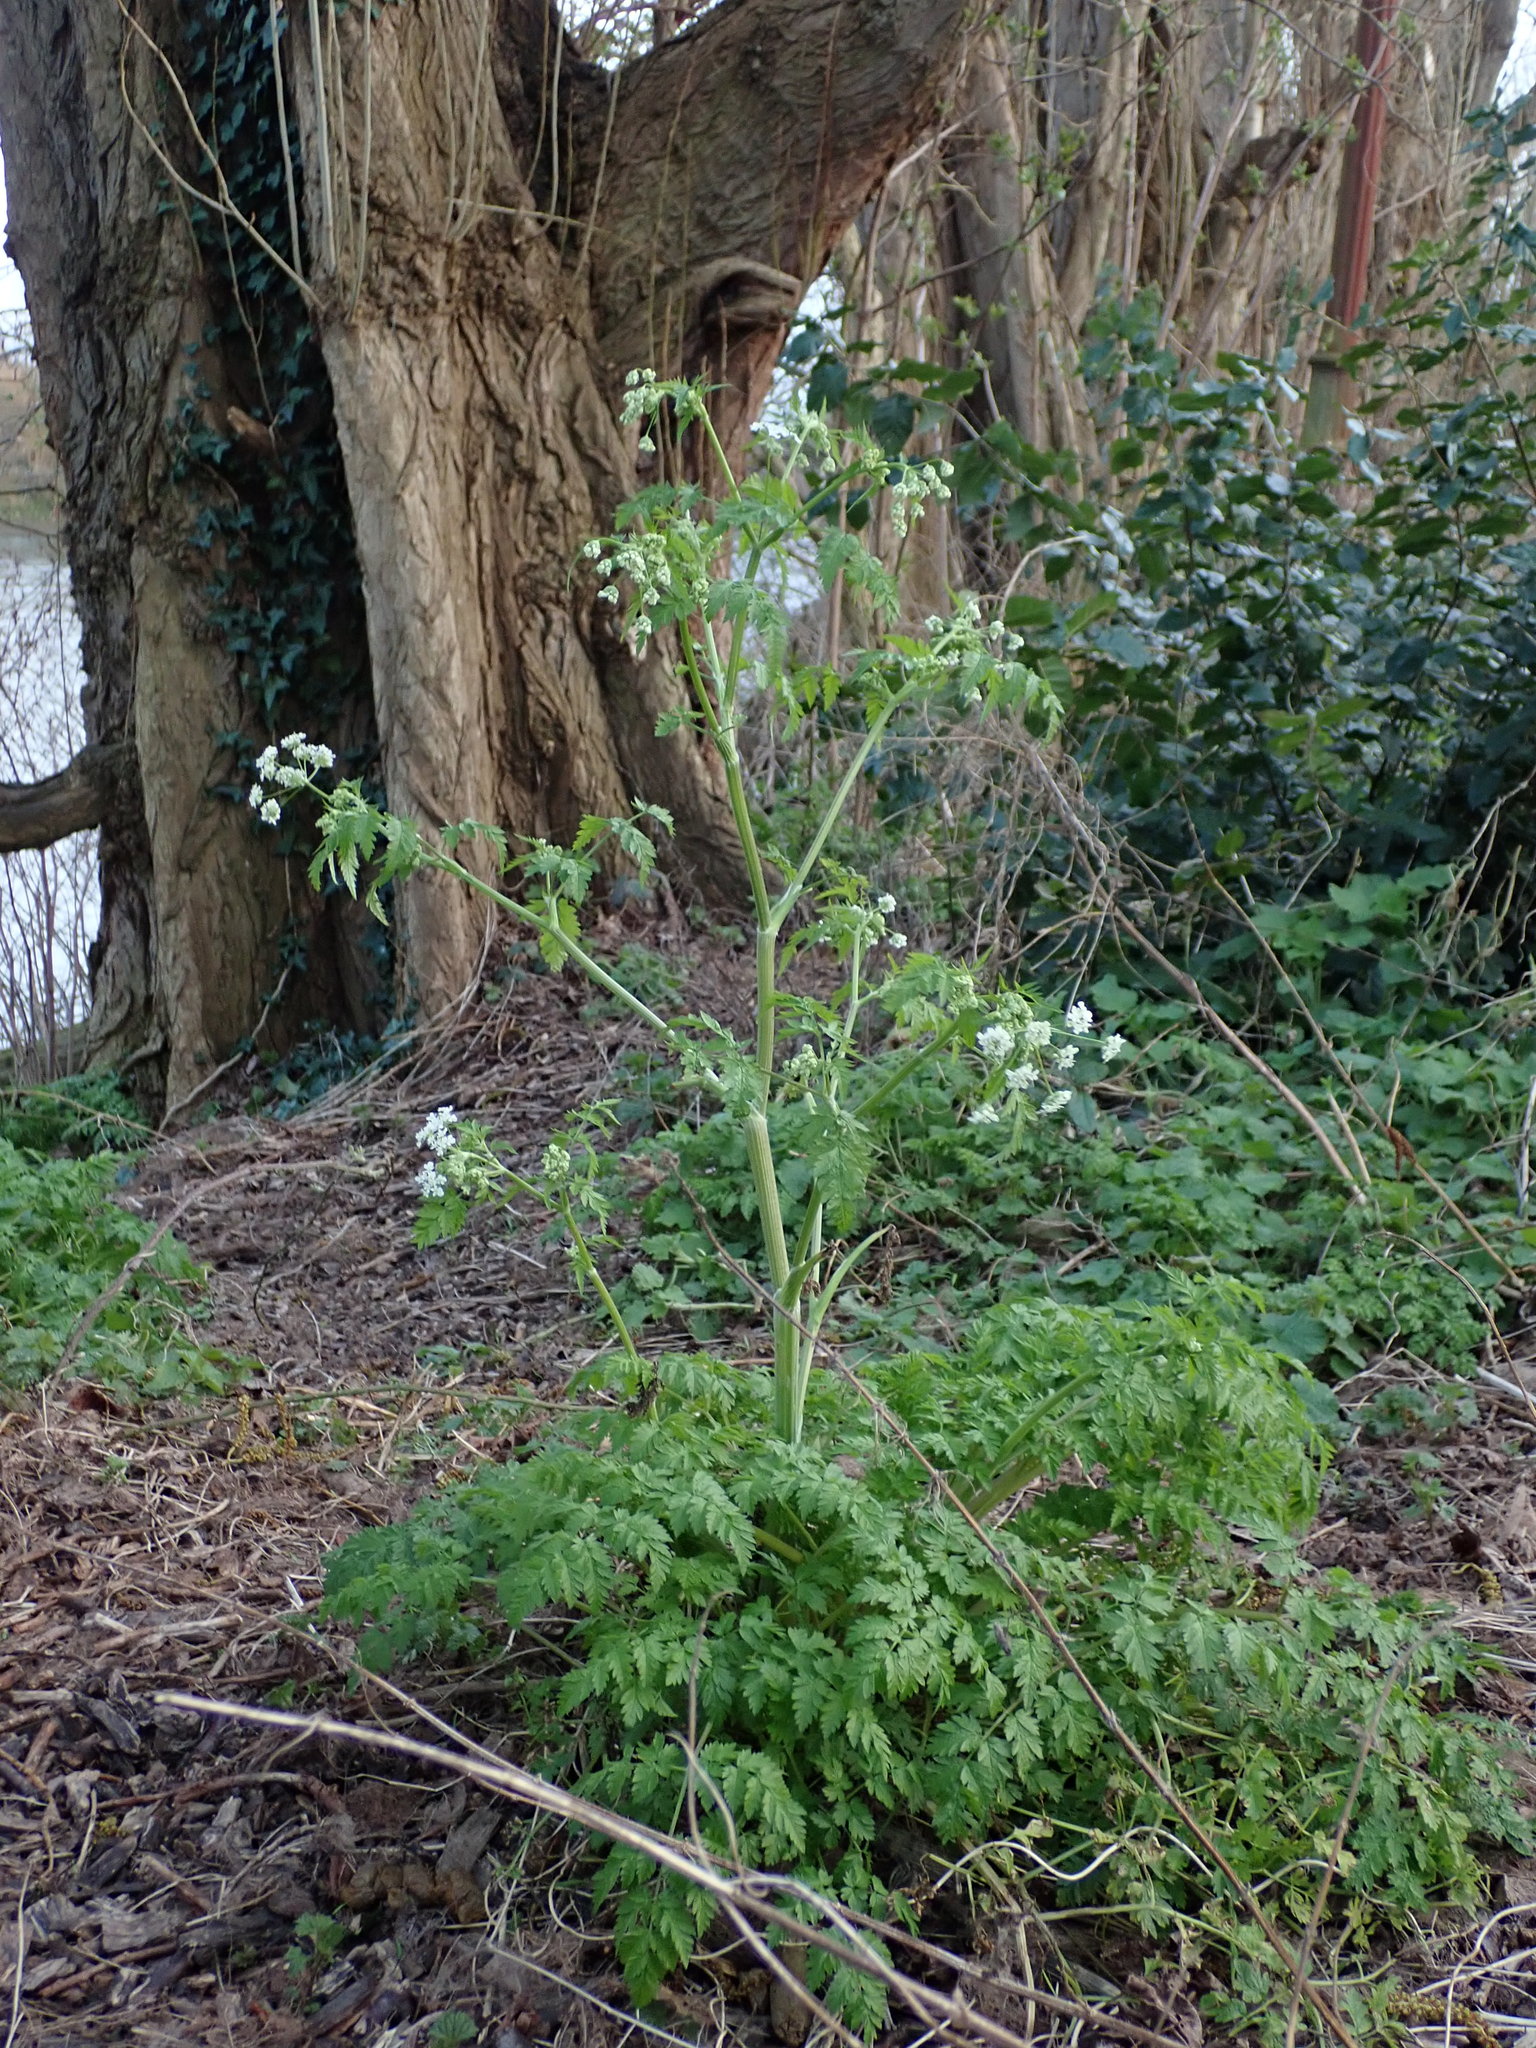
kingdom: Plantae
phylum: Tracheophyta
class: Magnoliopsida
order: Apiales
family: Apiaceae
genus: Anthriscus
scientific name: Anthriscus sylvestris
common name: Cow parsley
